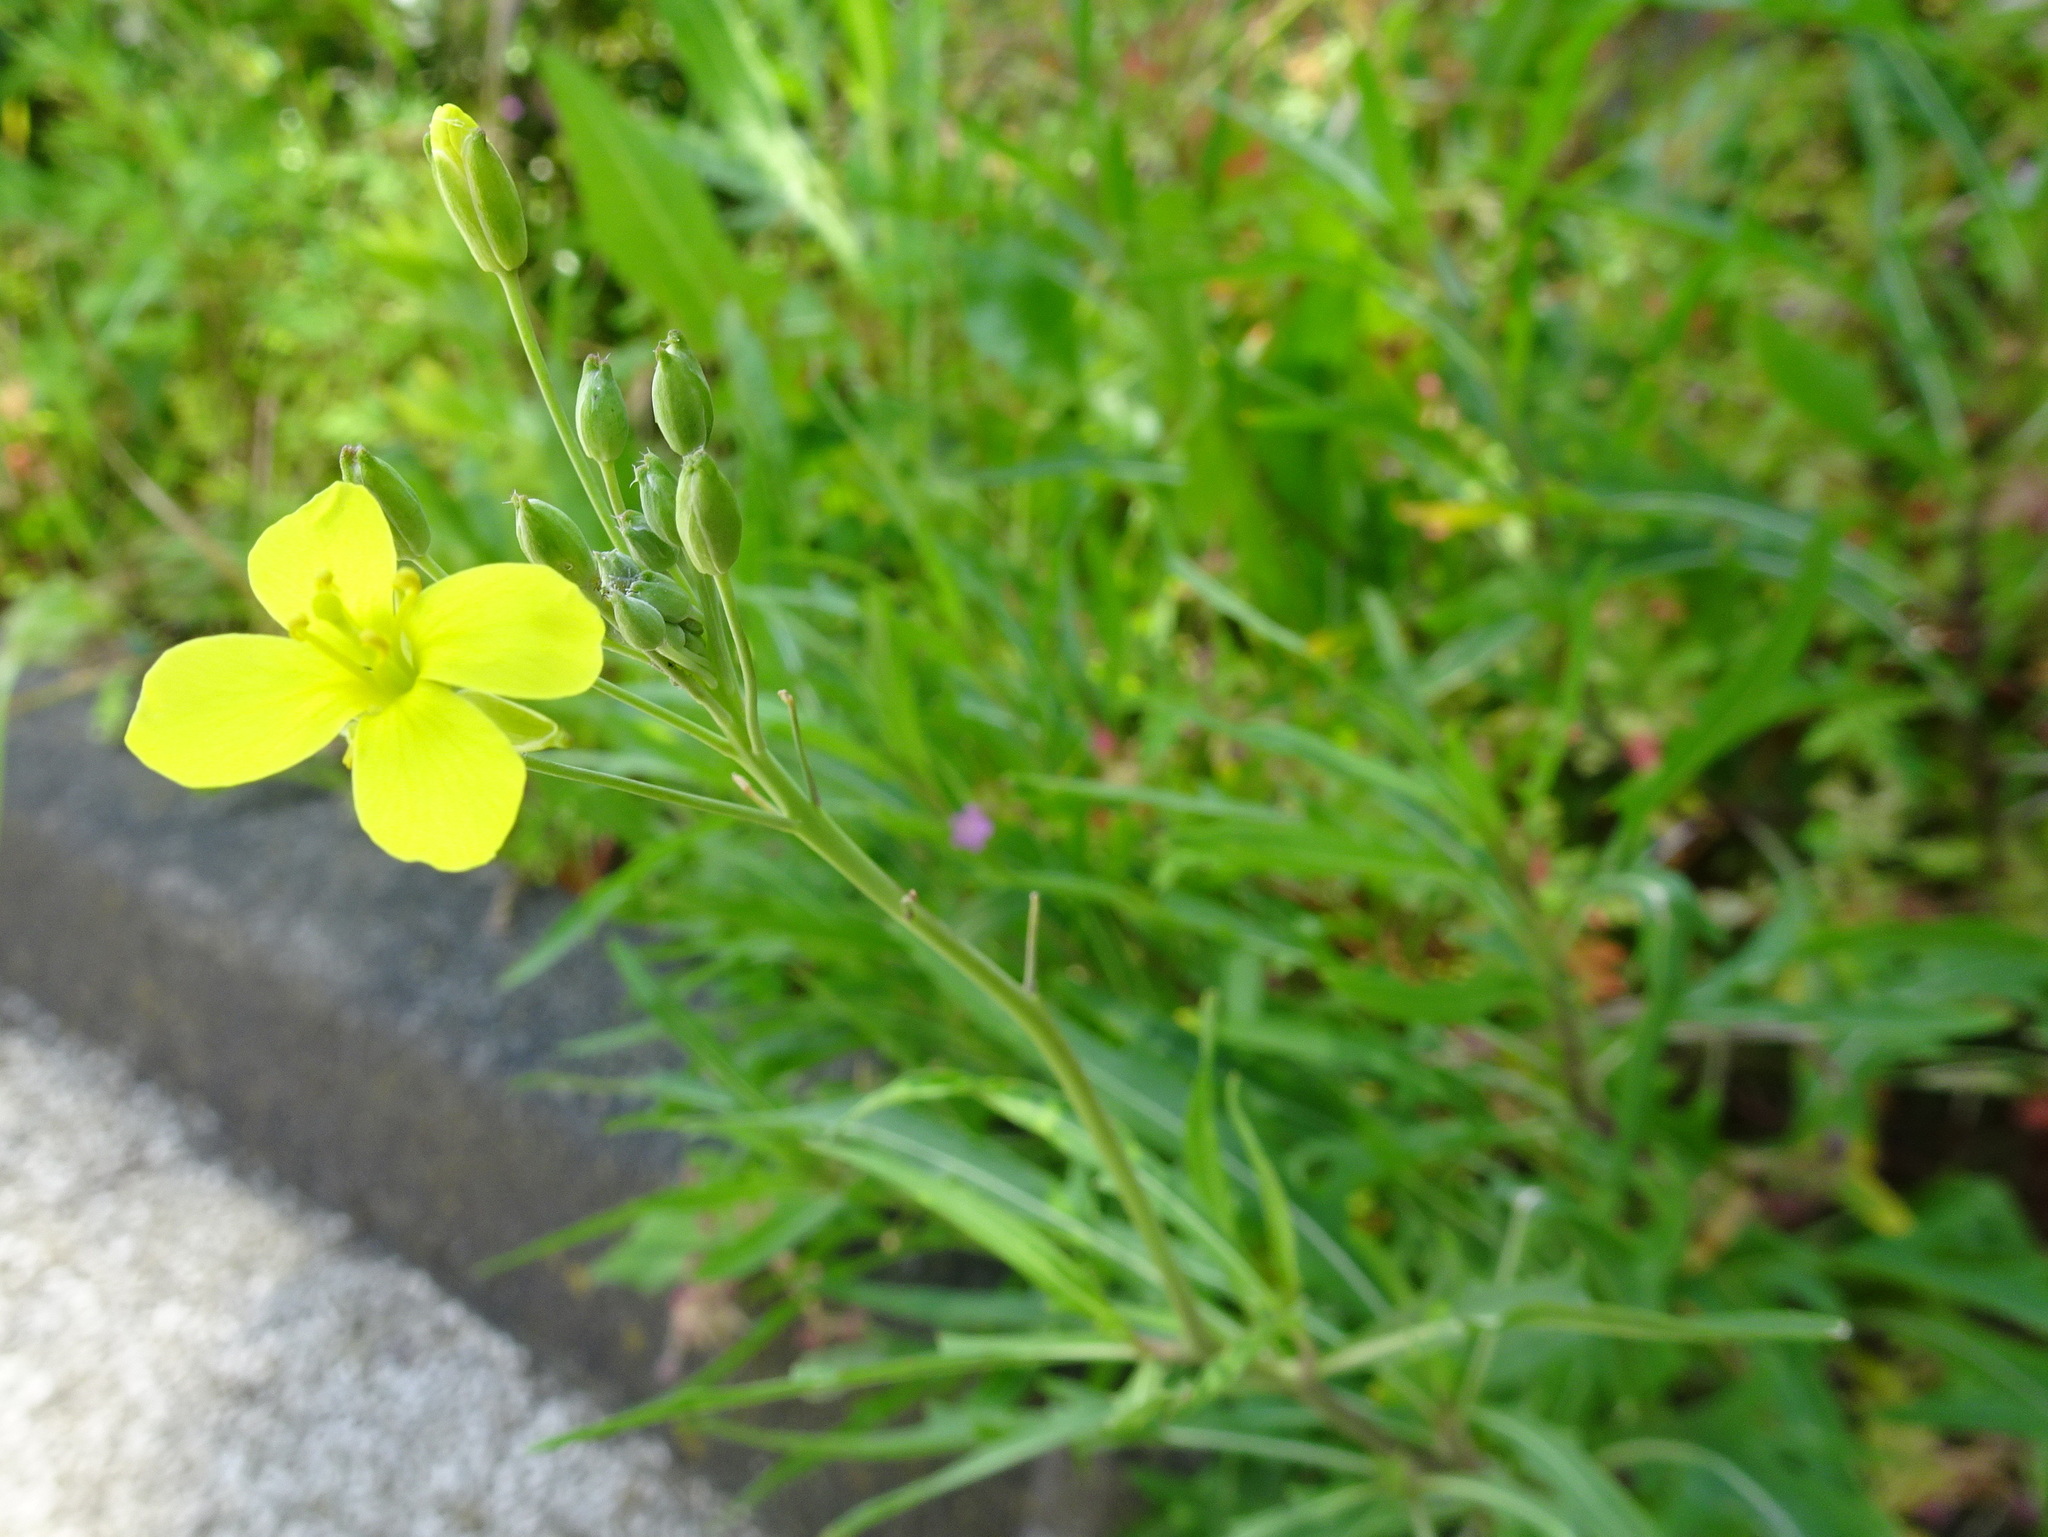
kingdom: Plantae
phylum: Tracheophyta
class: Magnoliopsida
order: Brassicales
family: Brassicaceae
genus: Diplotaxis
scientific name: Diplotaxis tenuifolia
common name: Perennial wall-rocket
